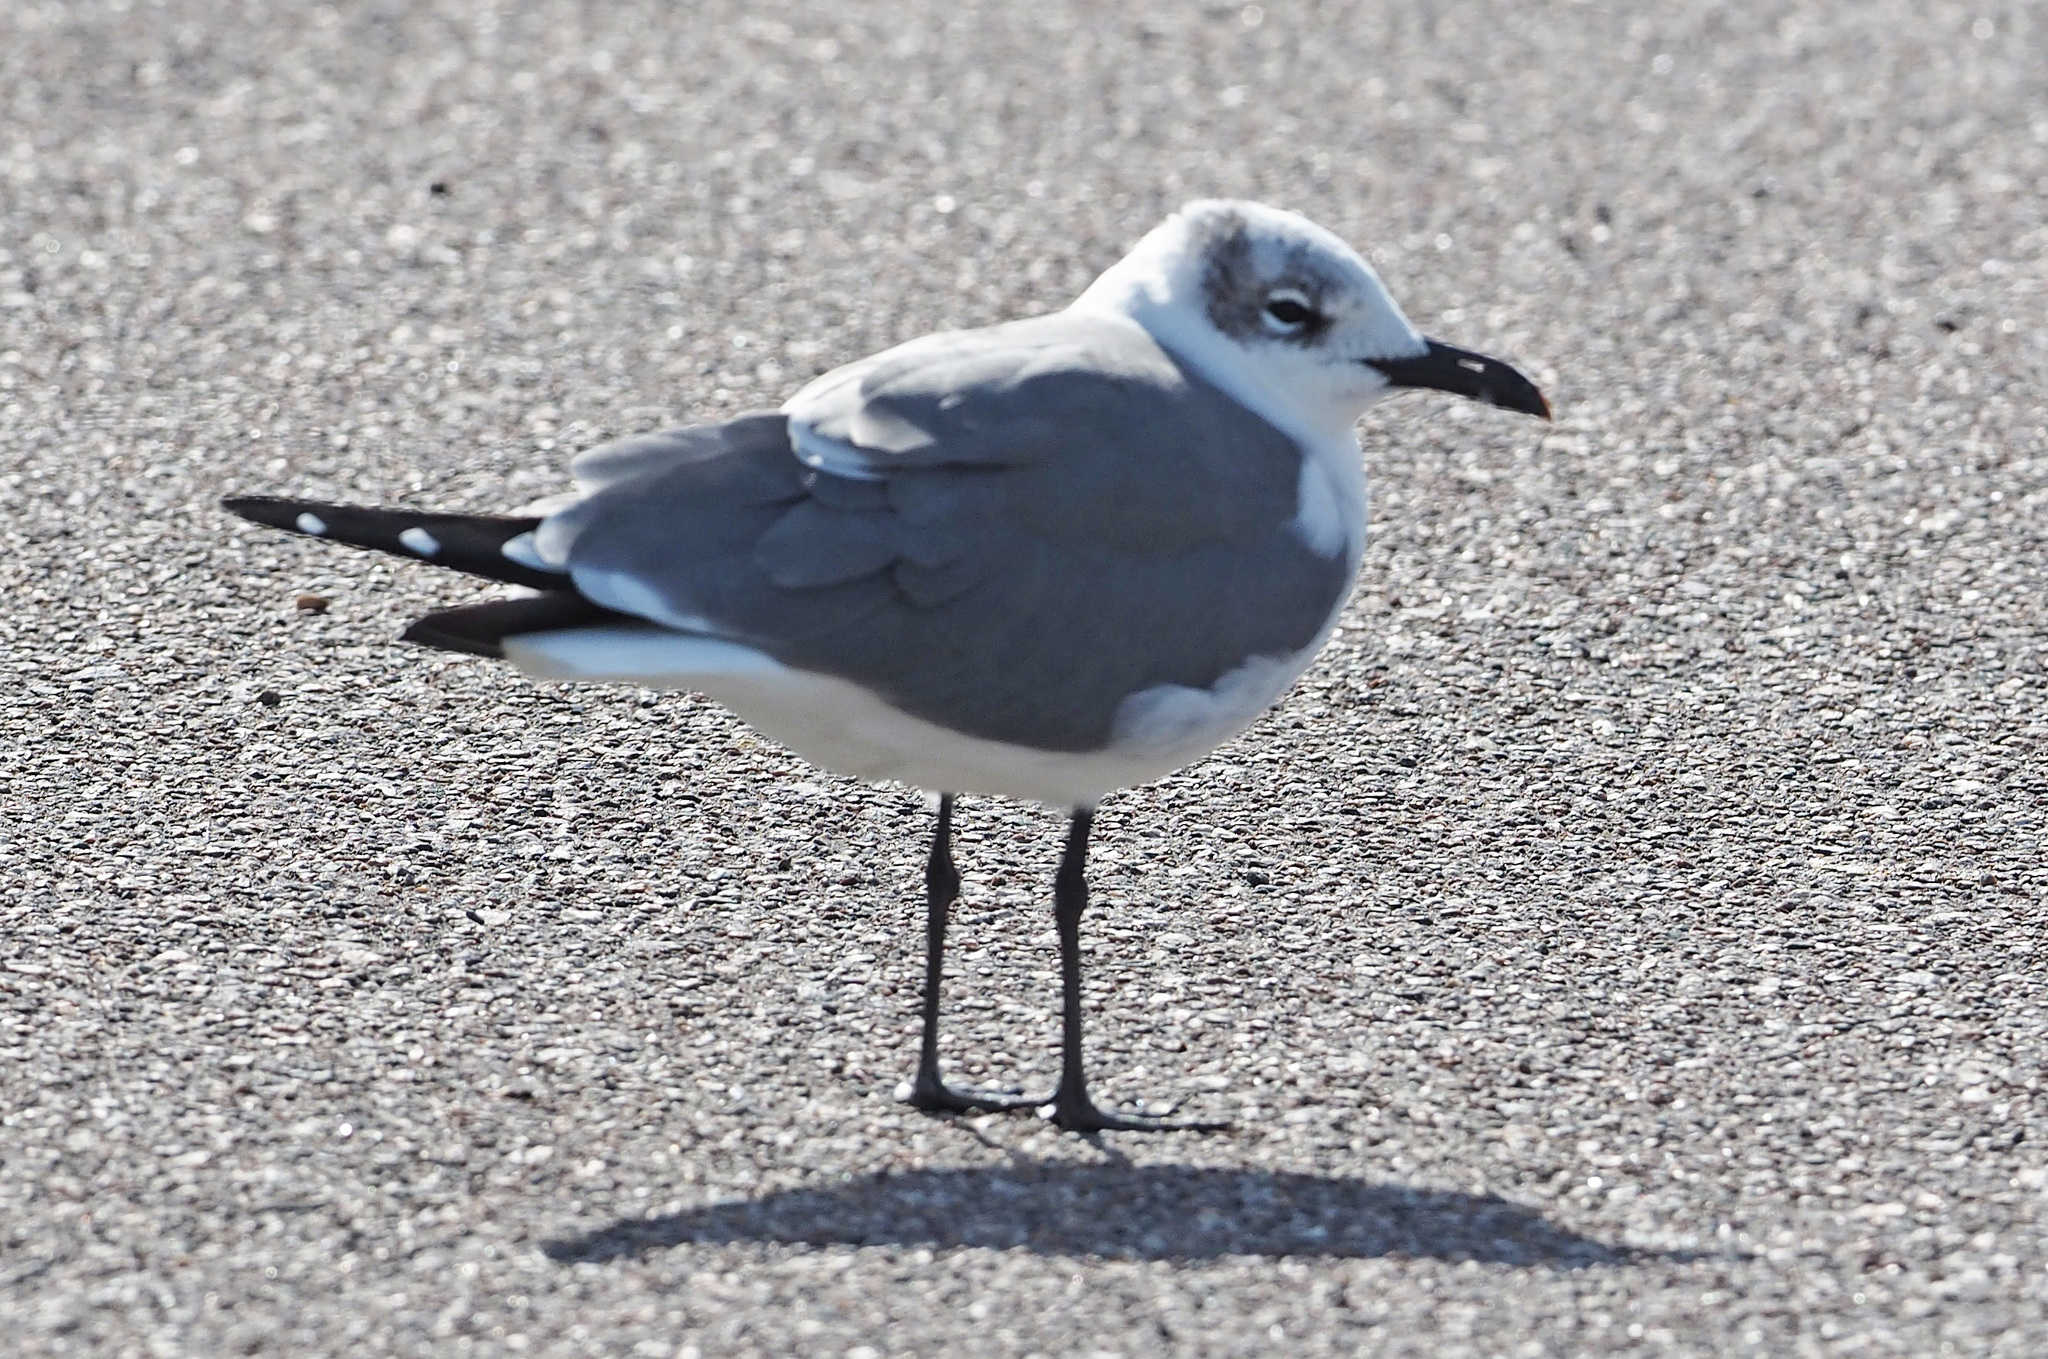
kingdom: Animalia
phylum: Chordata
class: Aves
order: Charadriiformes
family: Laridae
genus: Leucophaeus
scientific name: Leucophaeus atricilla
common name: Laughing gull
